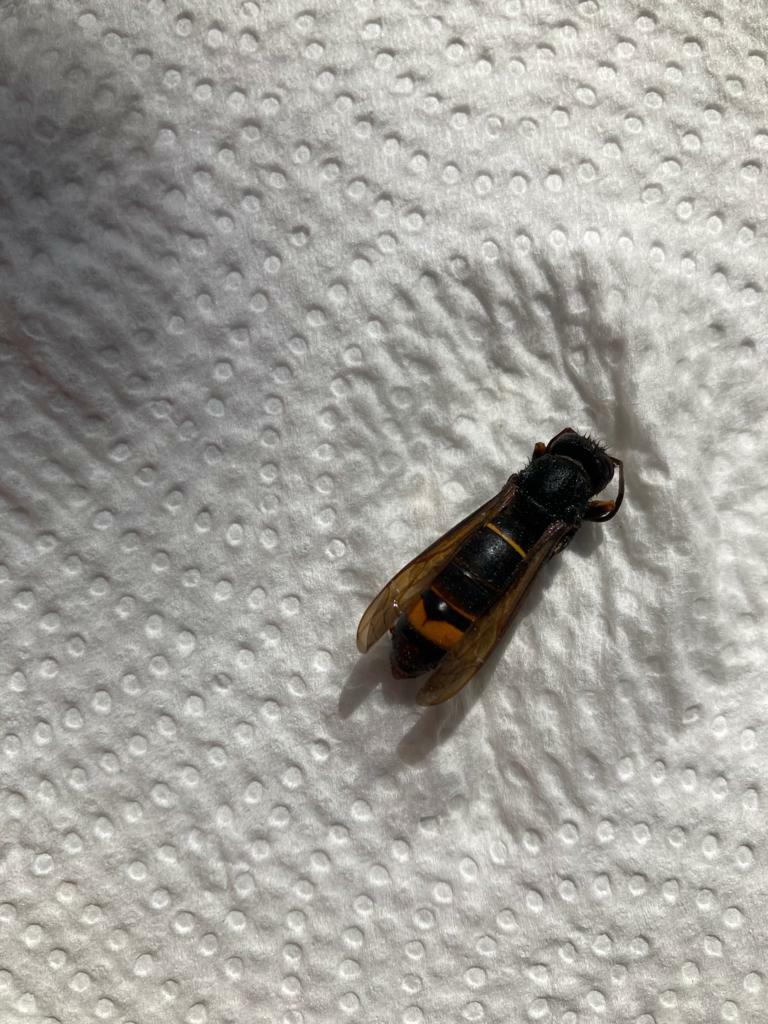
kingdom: Animalia
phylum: Arthropoda
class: Insecta
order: Hymenoptera
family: Vespidae
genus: Vespa
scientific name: Vespa velutina
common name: Asian hornet
